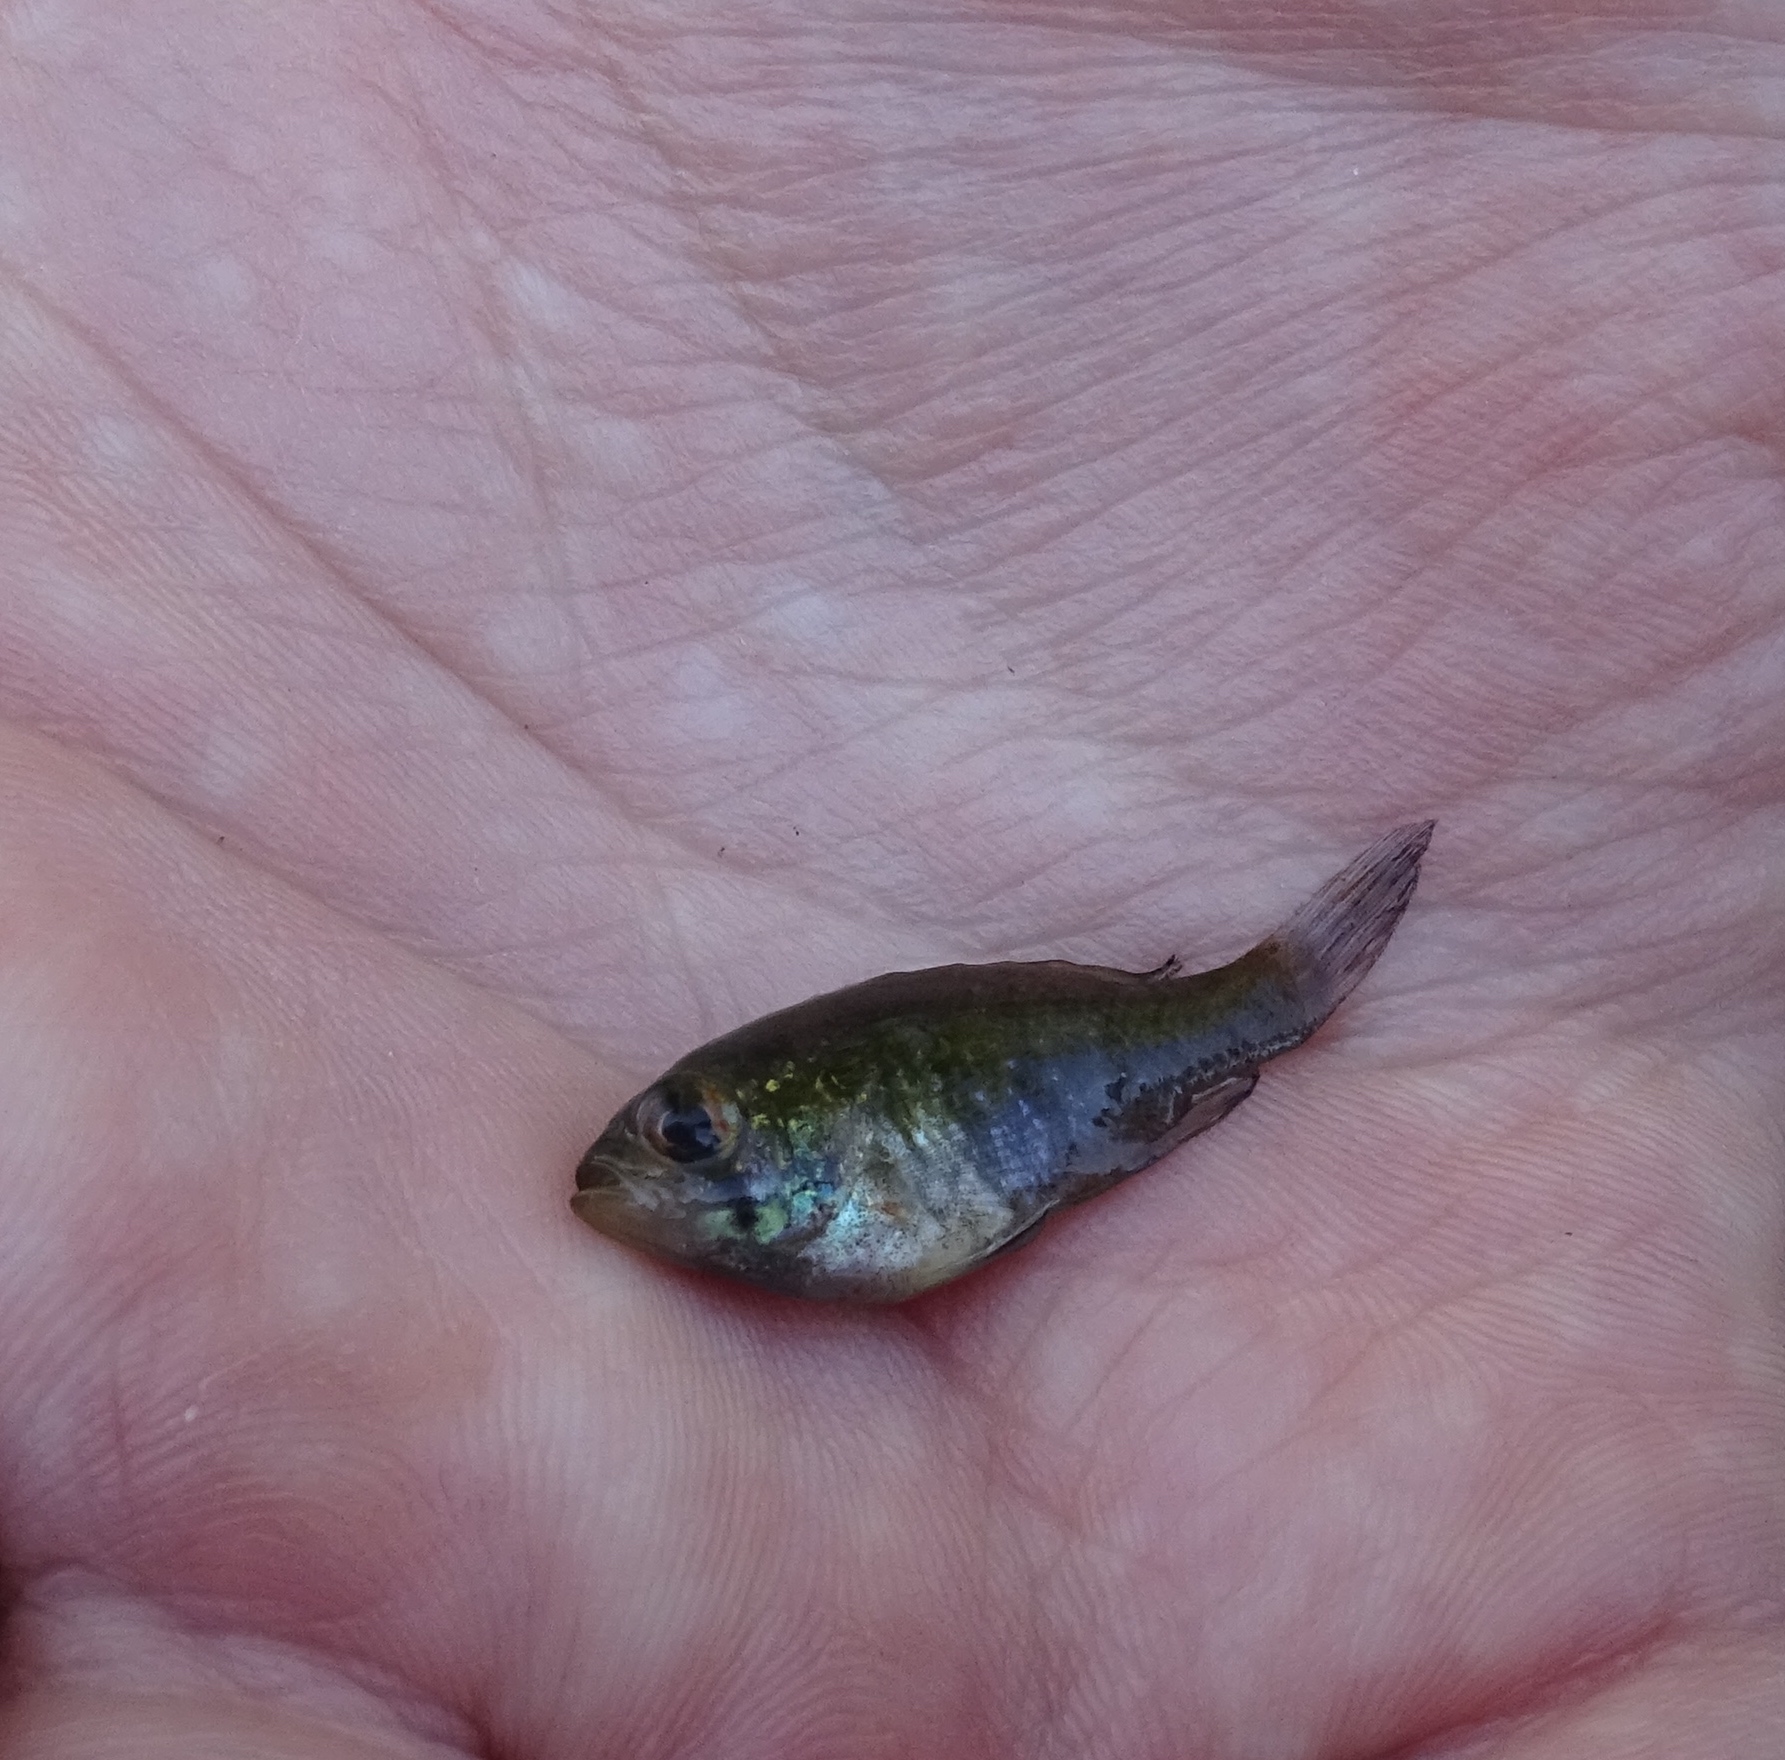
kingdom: Animalia
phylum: Chordata
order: Perciformes
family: Centrarchidae
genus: Enneacanthus
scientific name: Enneacanthus obesus
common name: Banded sunfish
